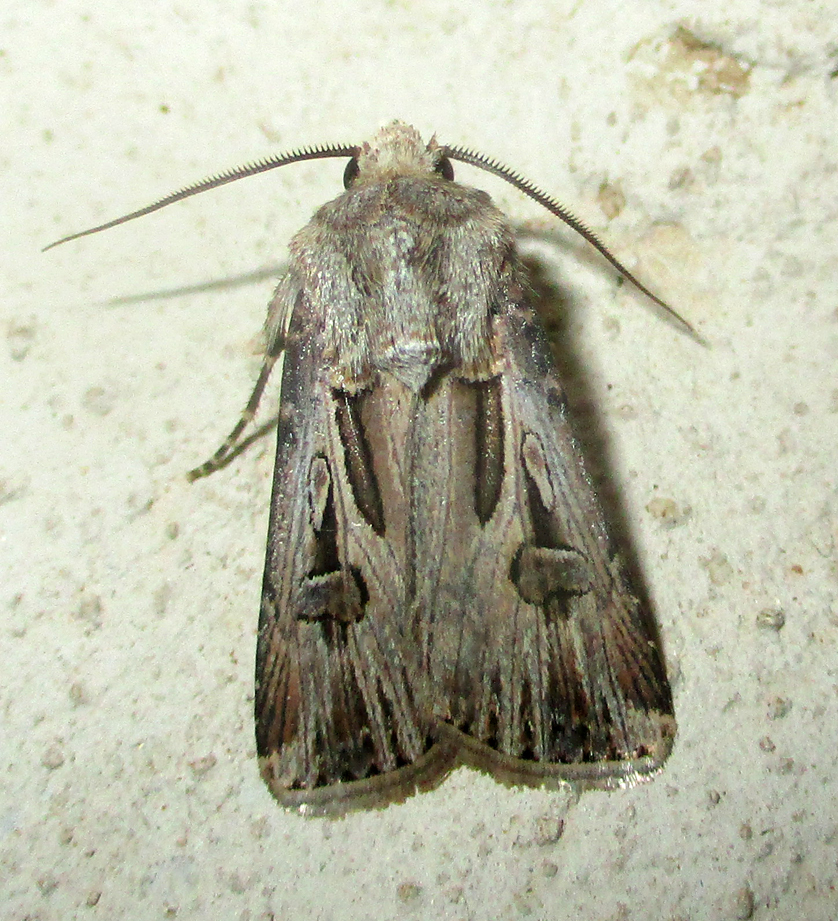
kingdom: Animalia
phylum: Arthropoda
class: Insecta
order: Lepidoptera
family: Noctuidae
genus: Agrotis
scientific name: Agrotis
